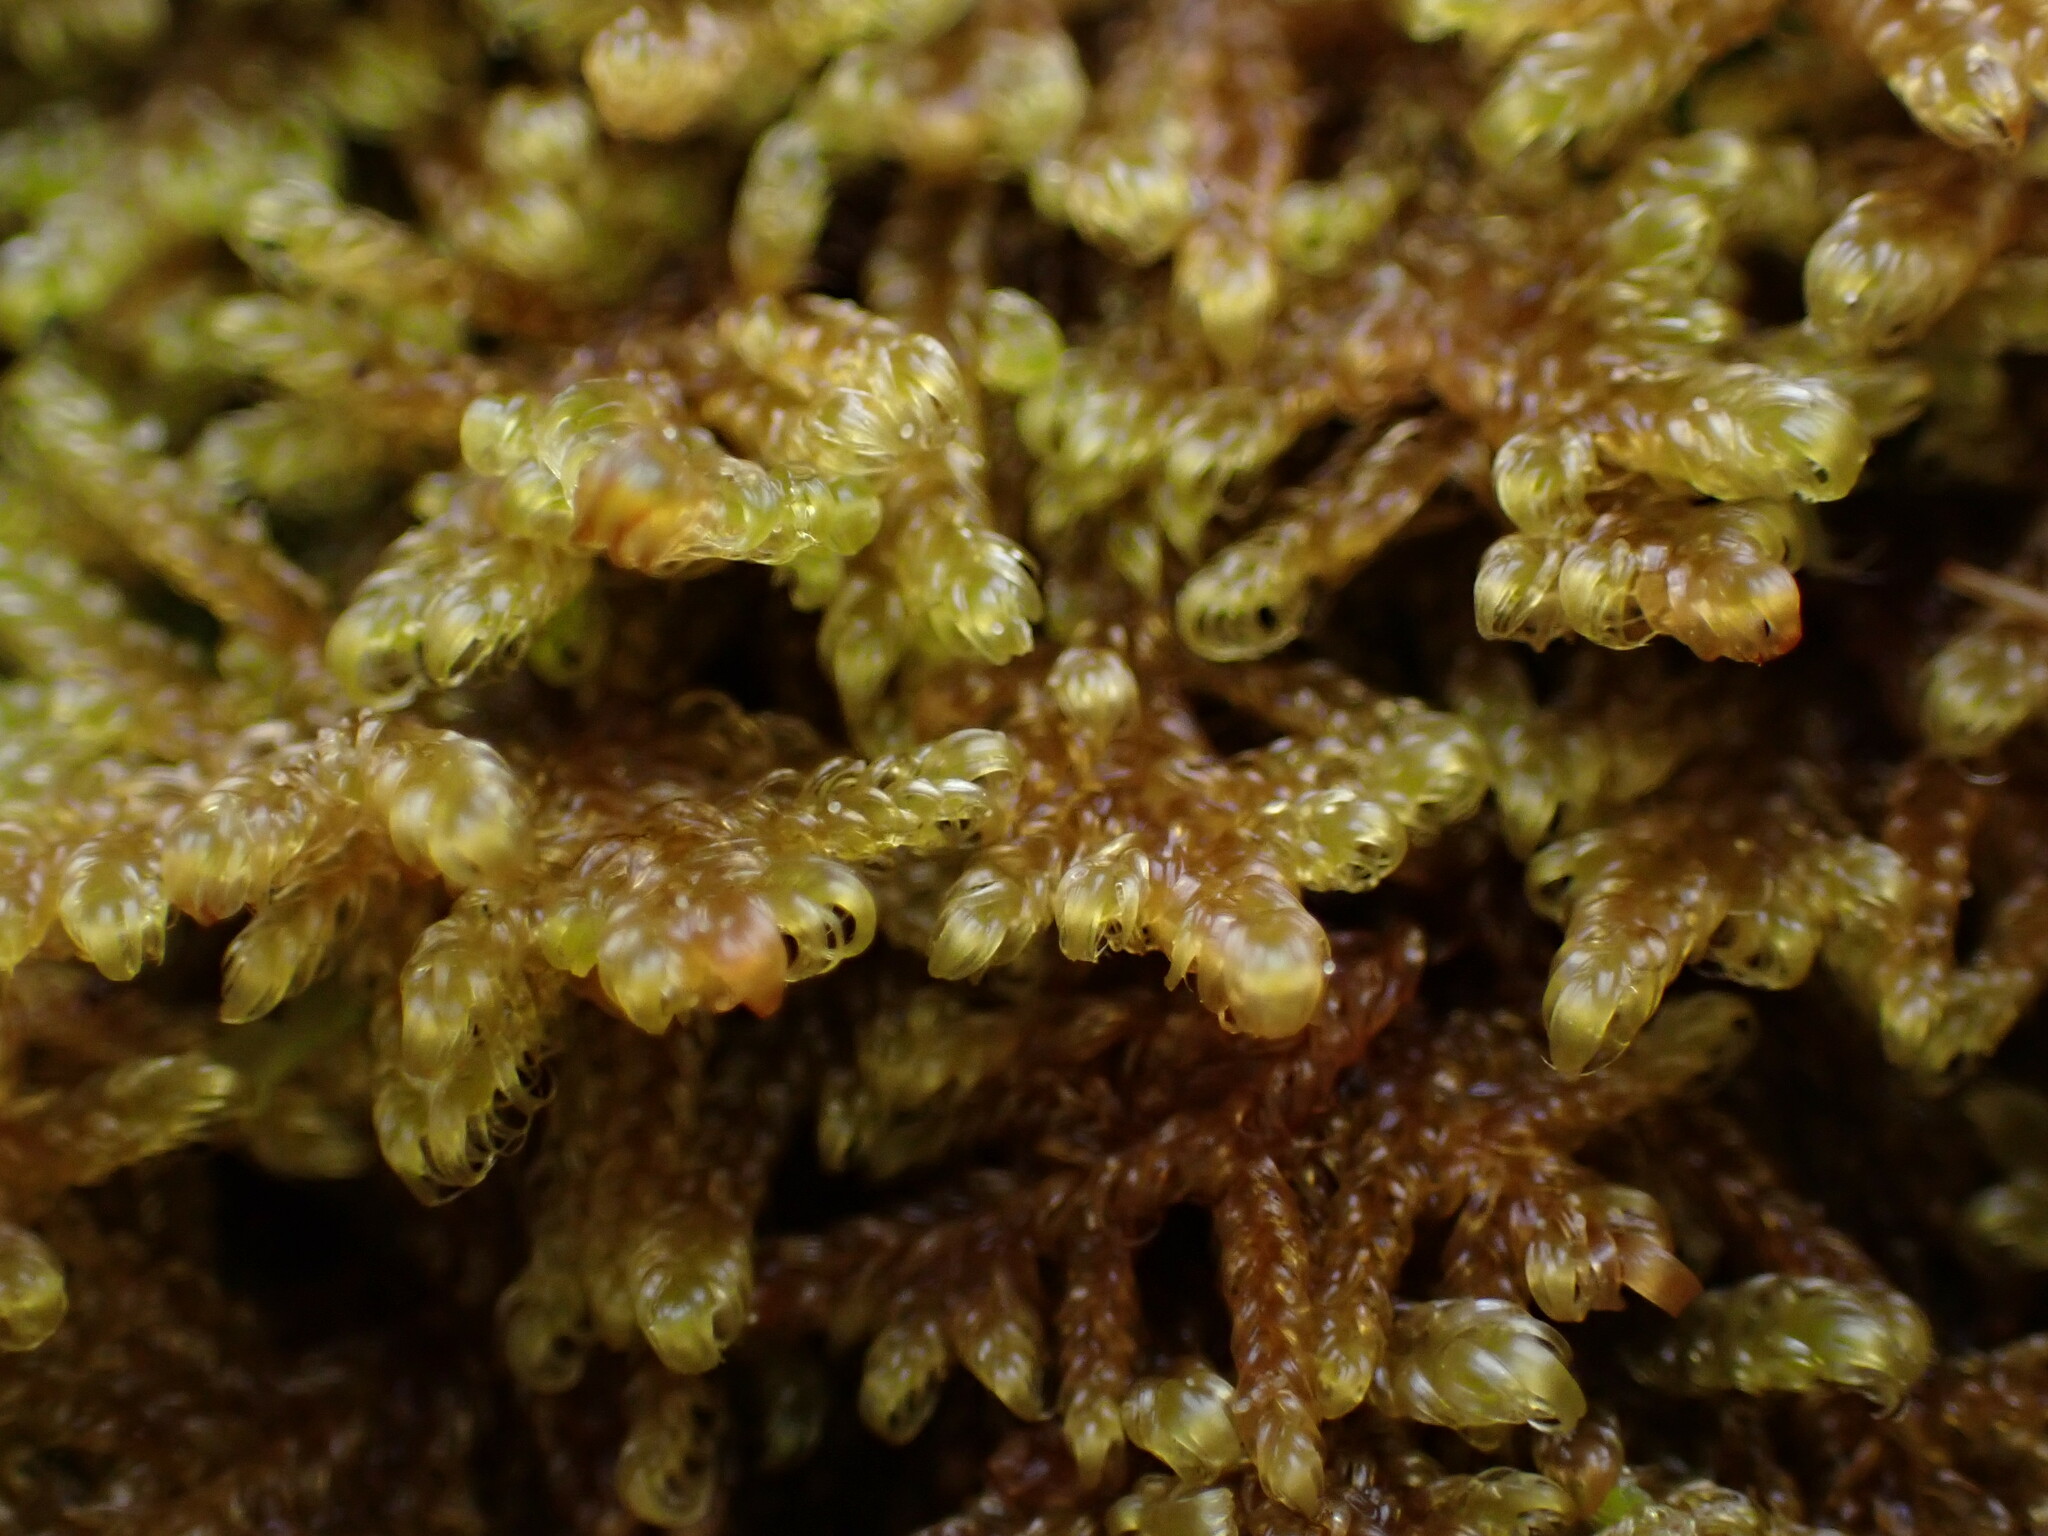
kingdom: Plantae
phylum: Bryophyta
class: Bryopsida
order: Hypnales
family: Stereodontaceae
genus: Stereodon
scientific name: Stereodon subimponens
